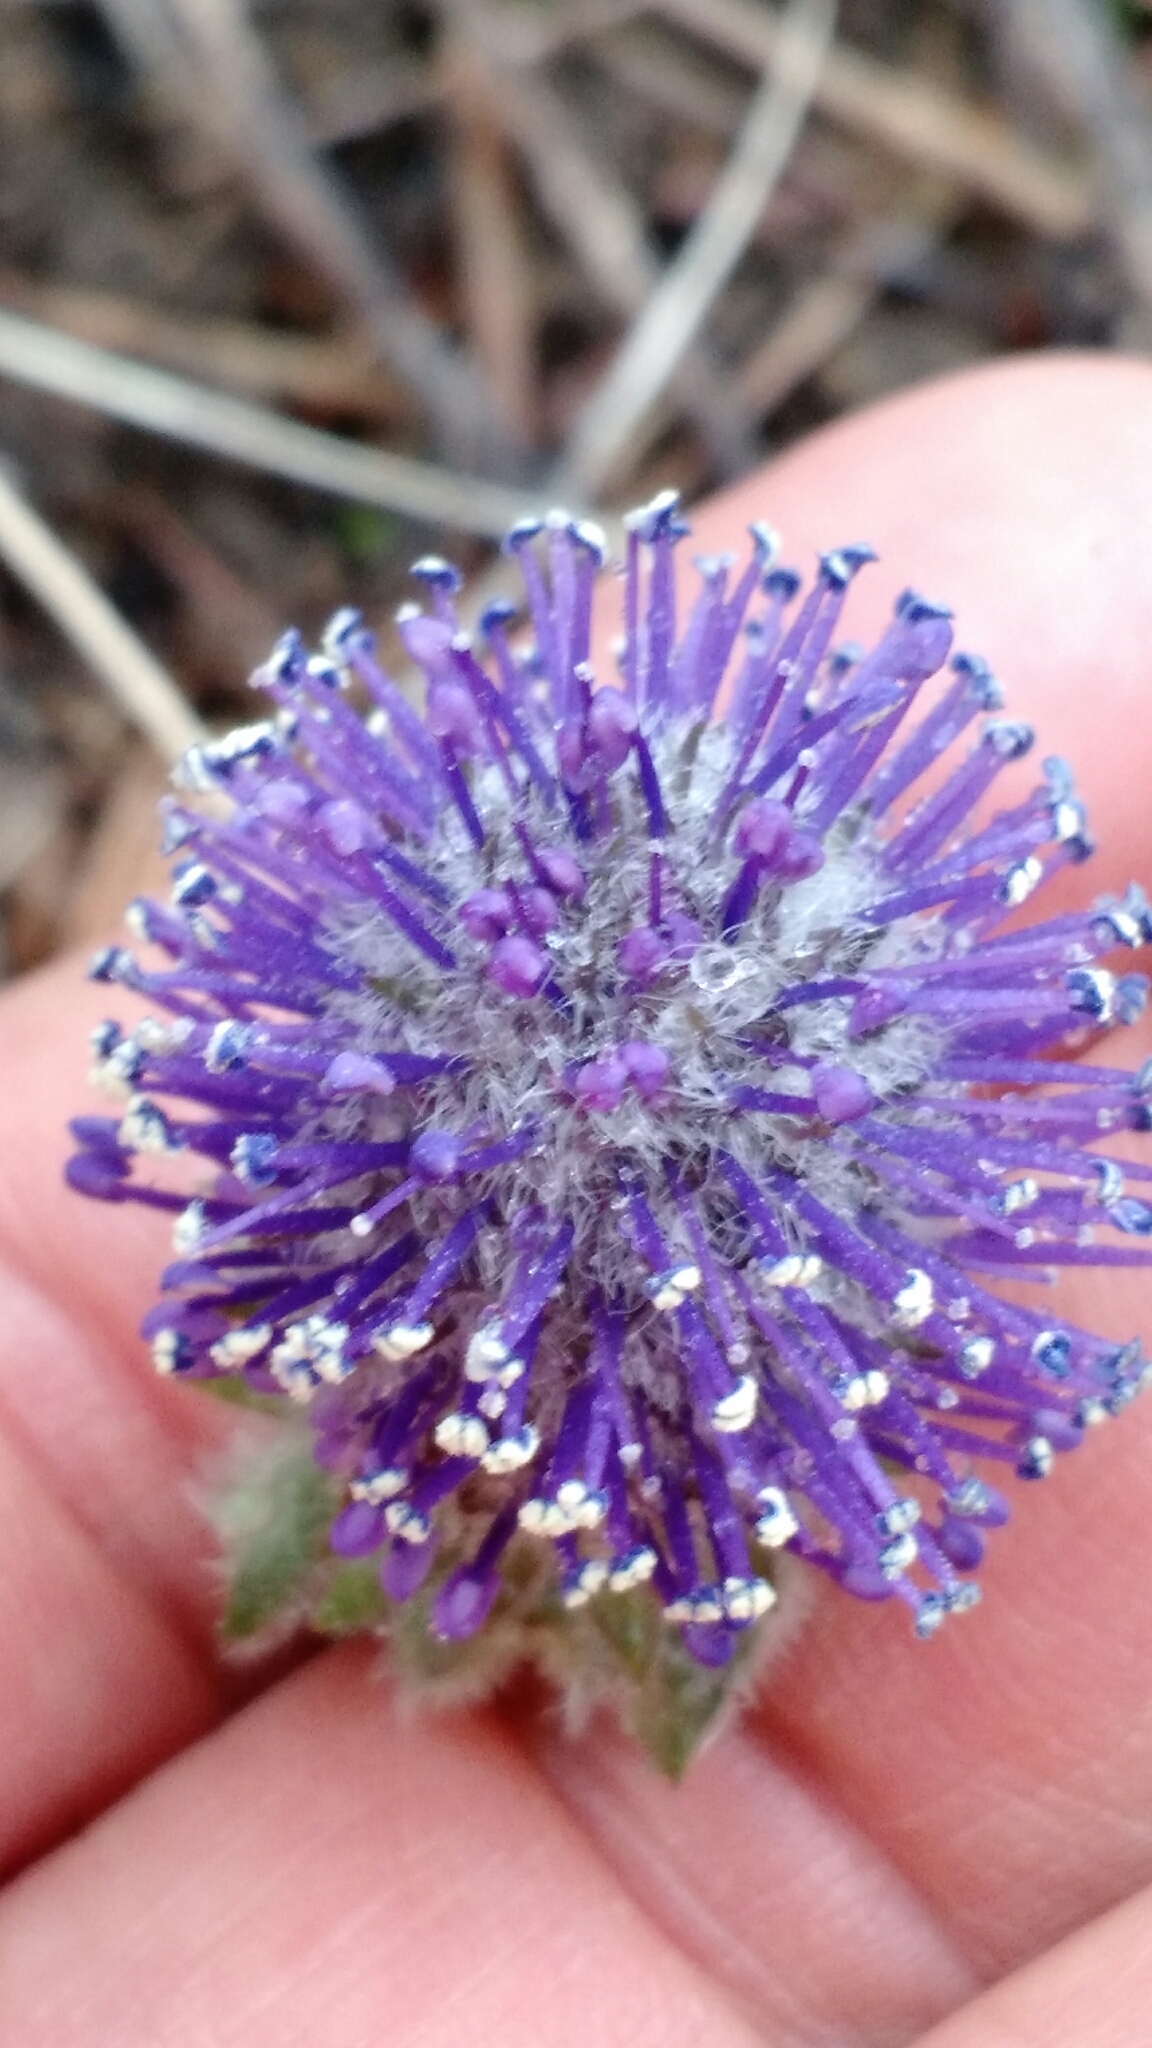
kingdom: Plantae
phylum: Tracheophyta
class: Magnoliopsida
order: Lamiales
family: Plantaginaceae
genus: Synthyris
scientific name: Synthyris wyomingensis
